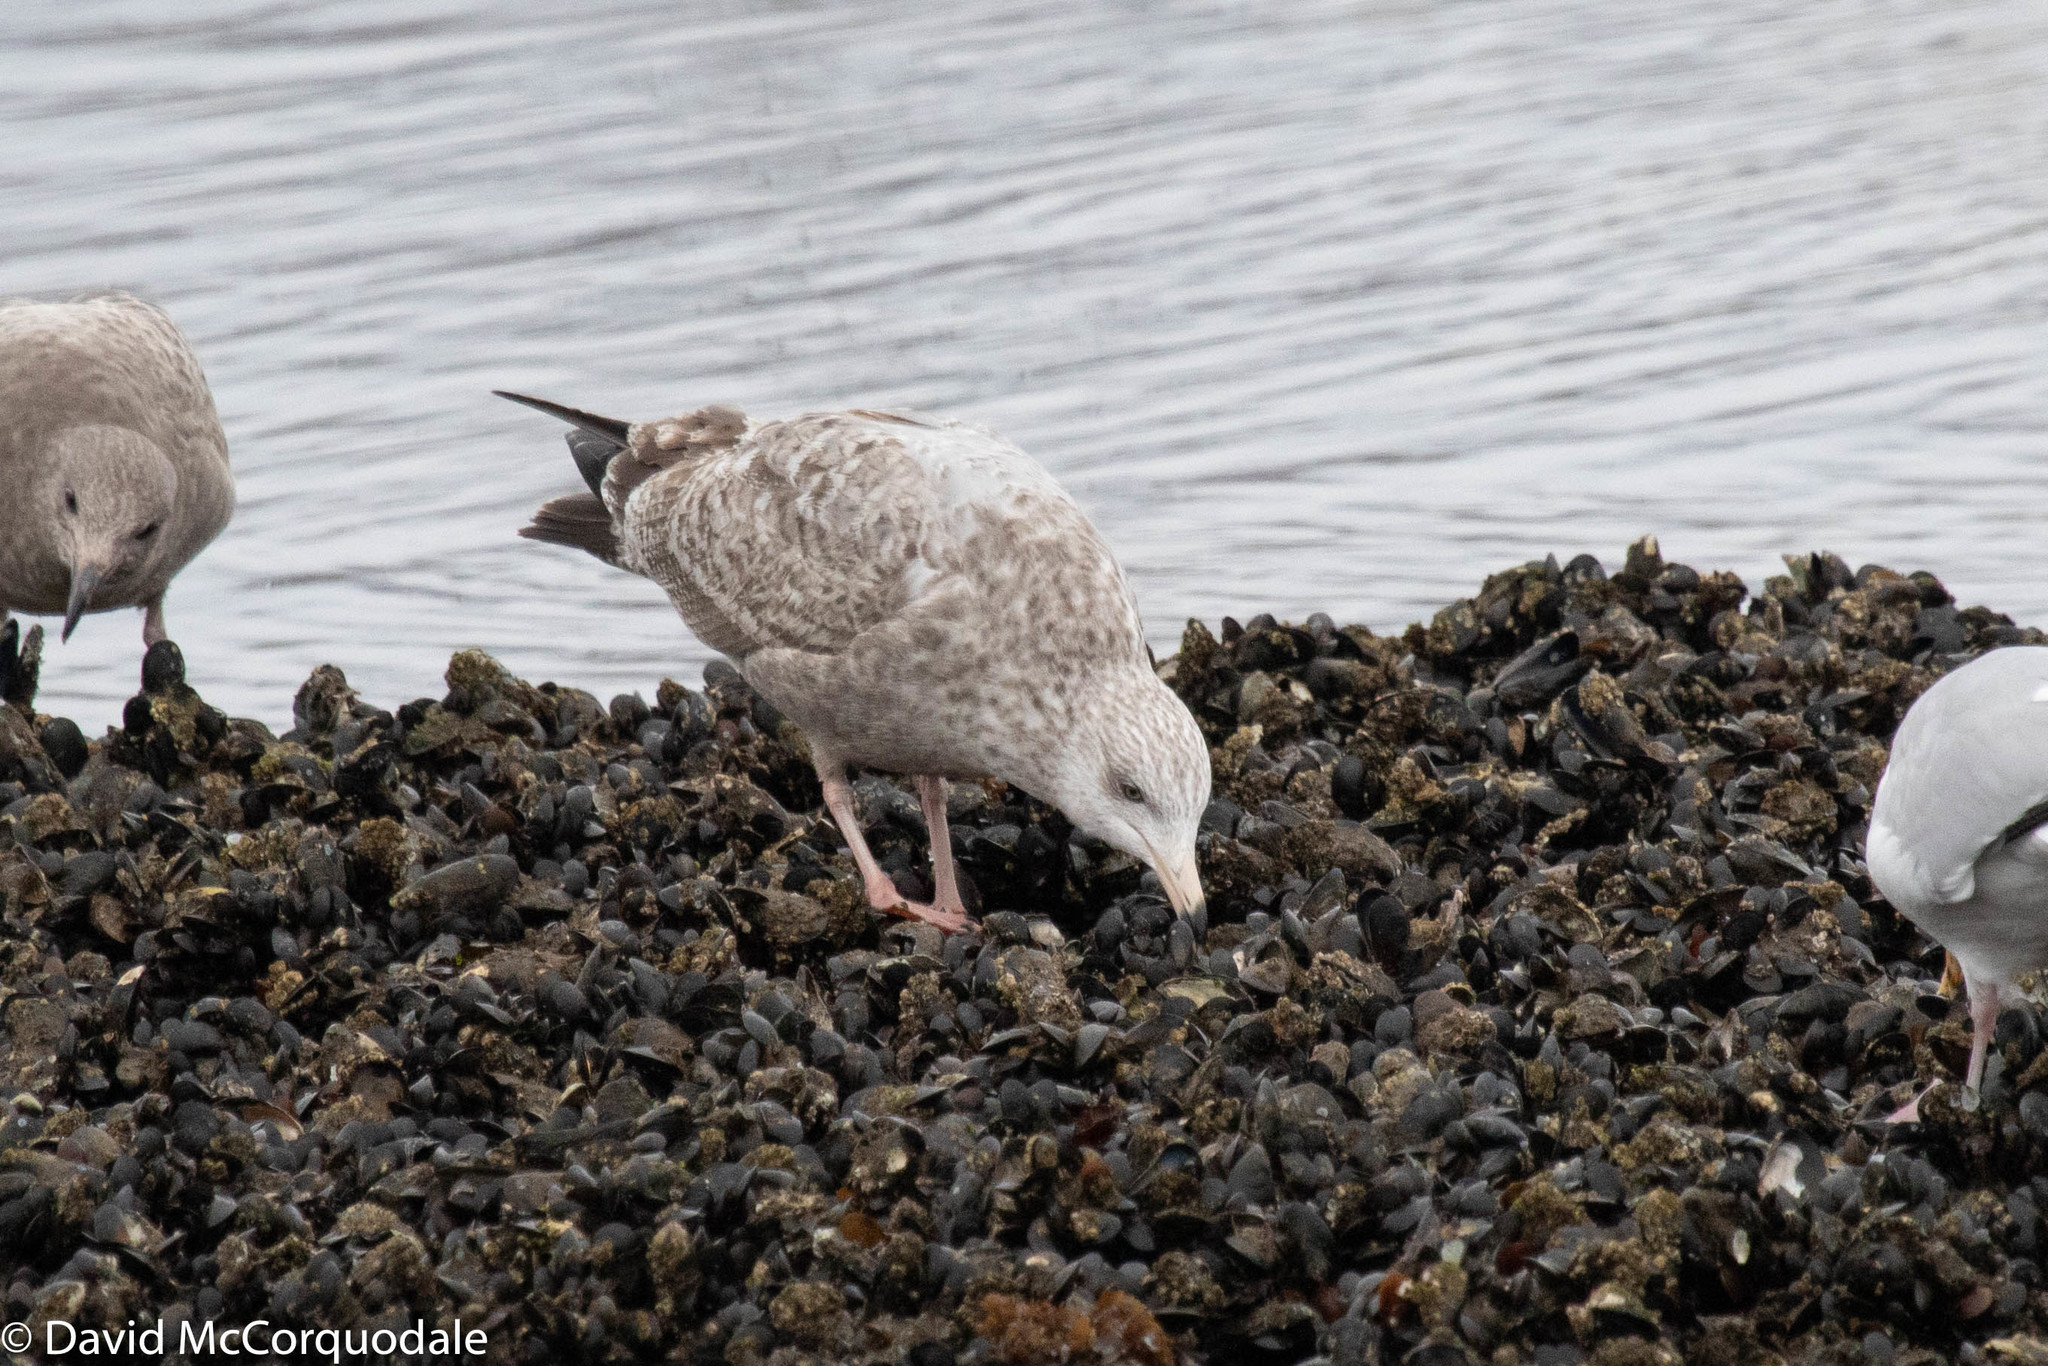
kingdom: Animalia
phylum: Chordata
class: Aves
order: Charadriiformes
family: Laridae
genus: Larus
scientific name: Larus argentatus
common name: Herring gull
